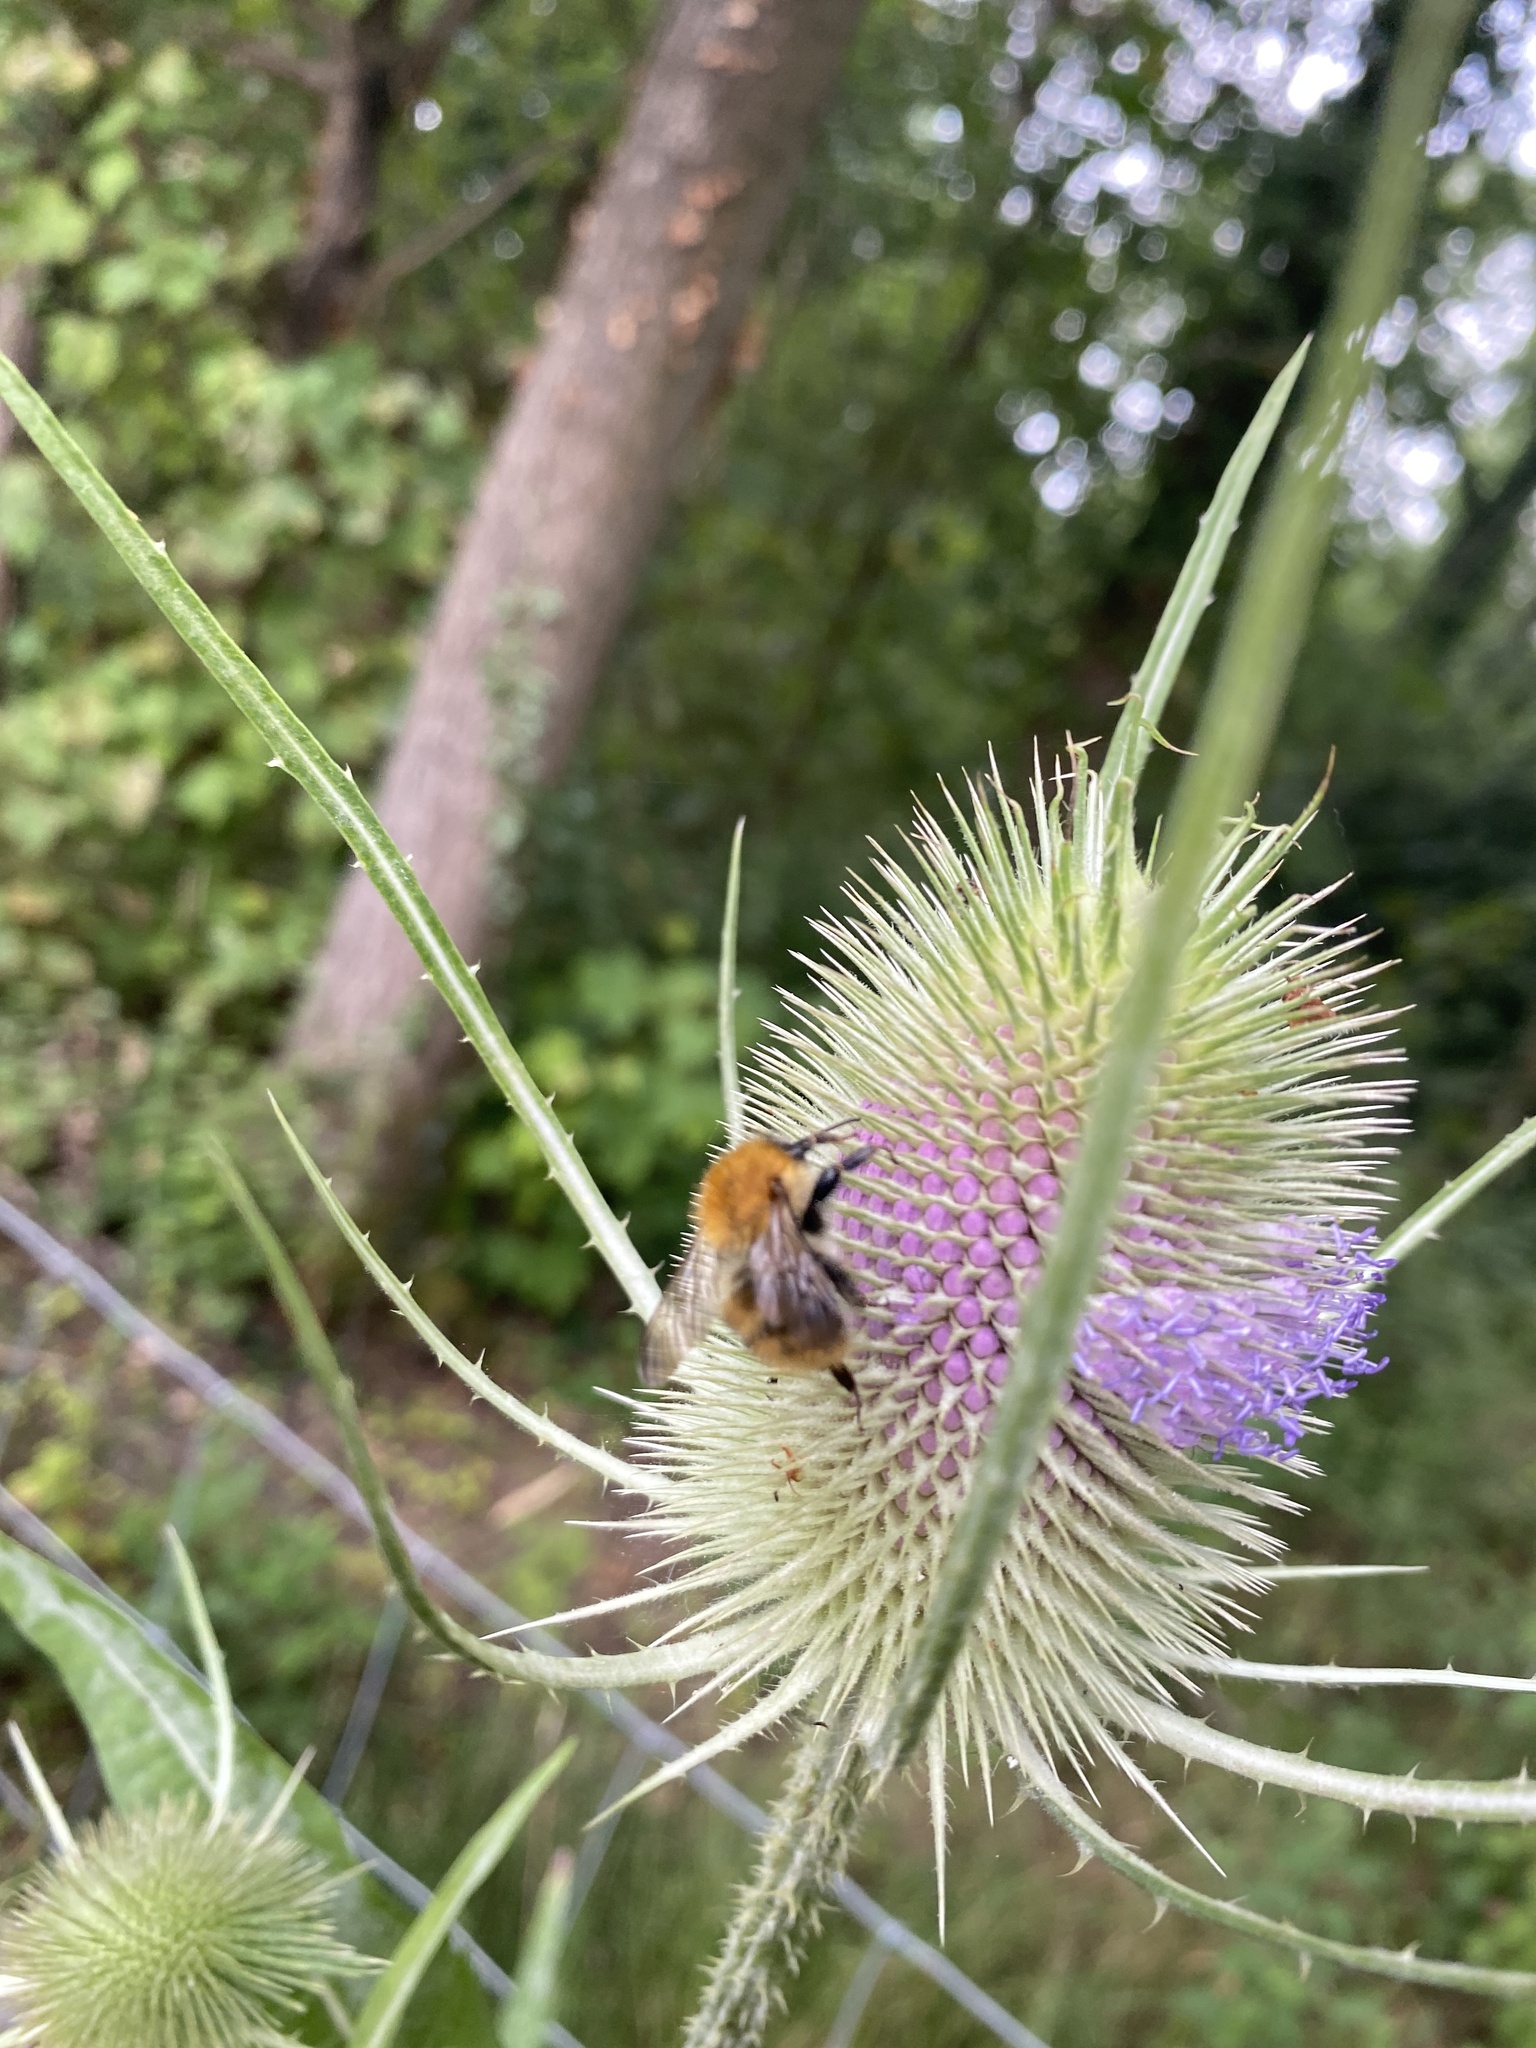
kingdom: Animalia
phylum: Arthropoda
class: Insecta
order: Hymenoptera
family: Apidae
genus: Bombus
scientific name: Bombus pascuorum
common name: Common carder bee
